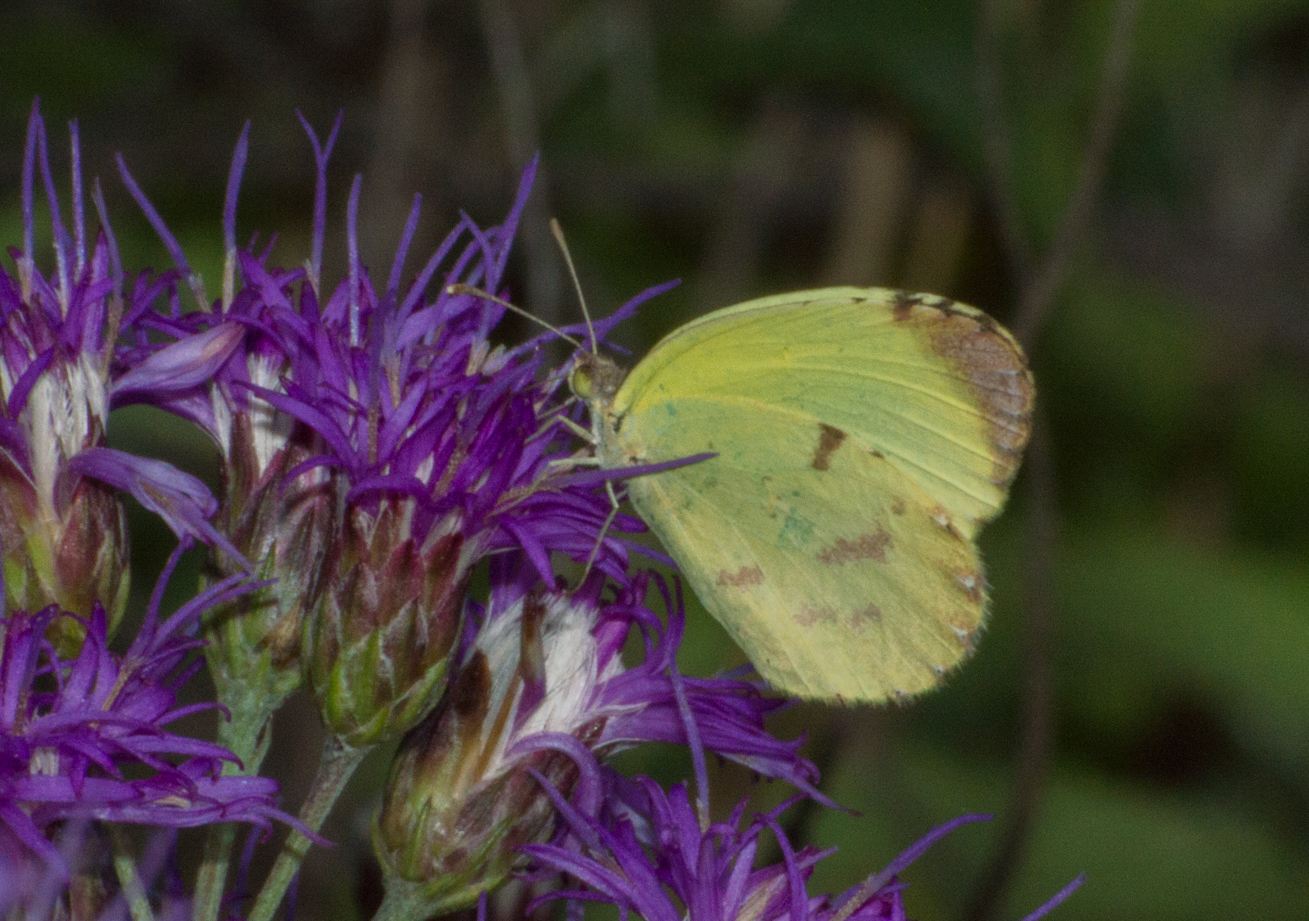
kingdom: Animalia
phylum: Arthropoda
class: Insecta
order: Lepidoptera
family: Pieridae
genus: Teriocolias
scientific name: Teriocolias
